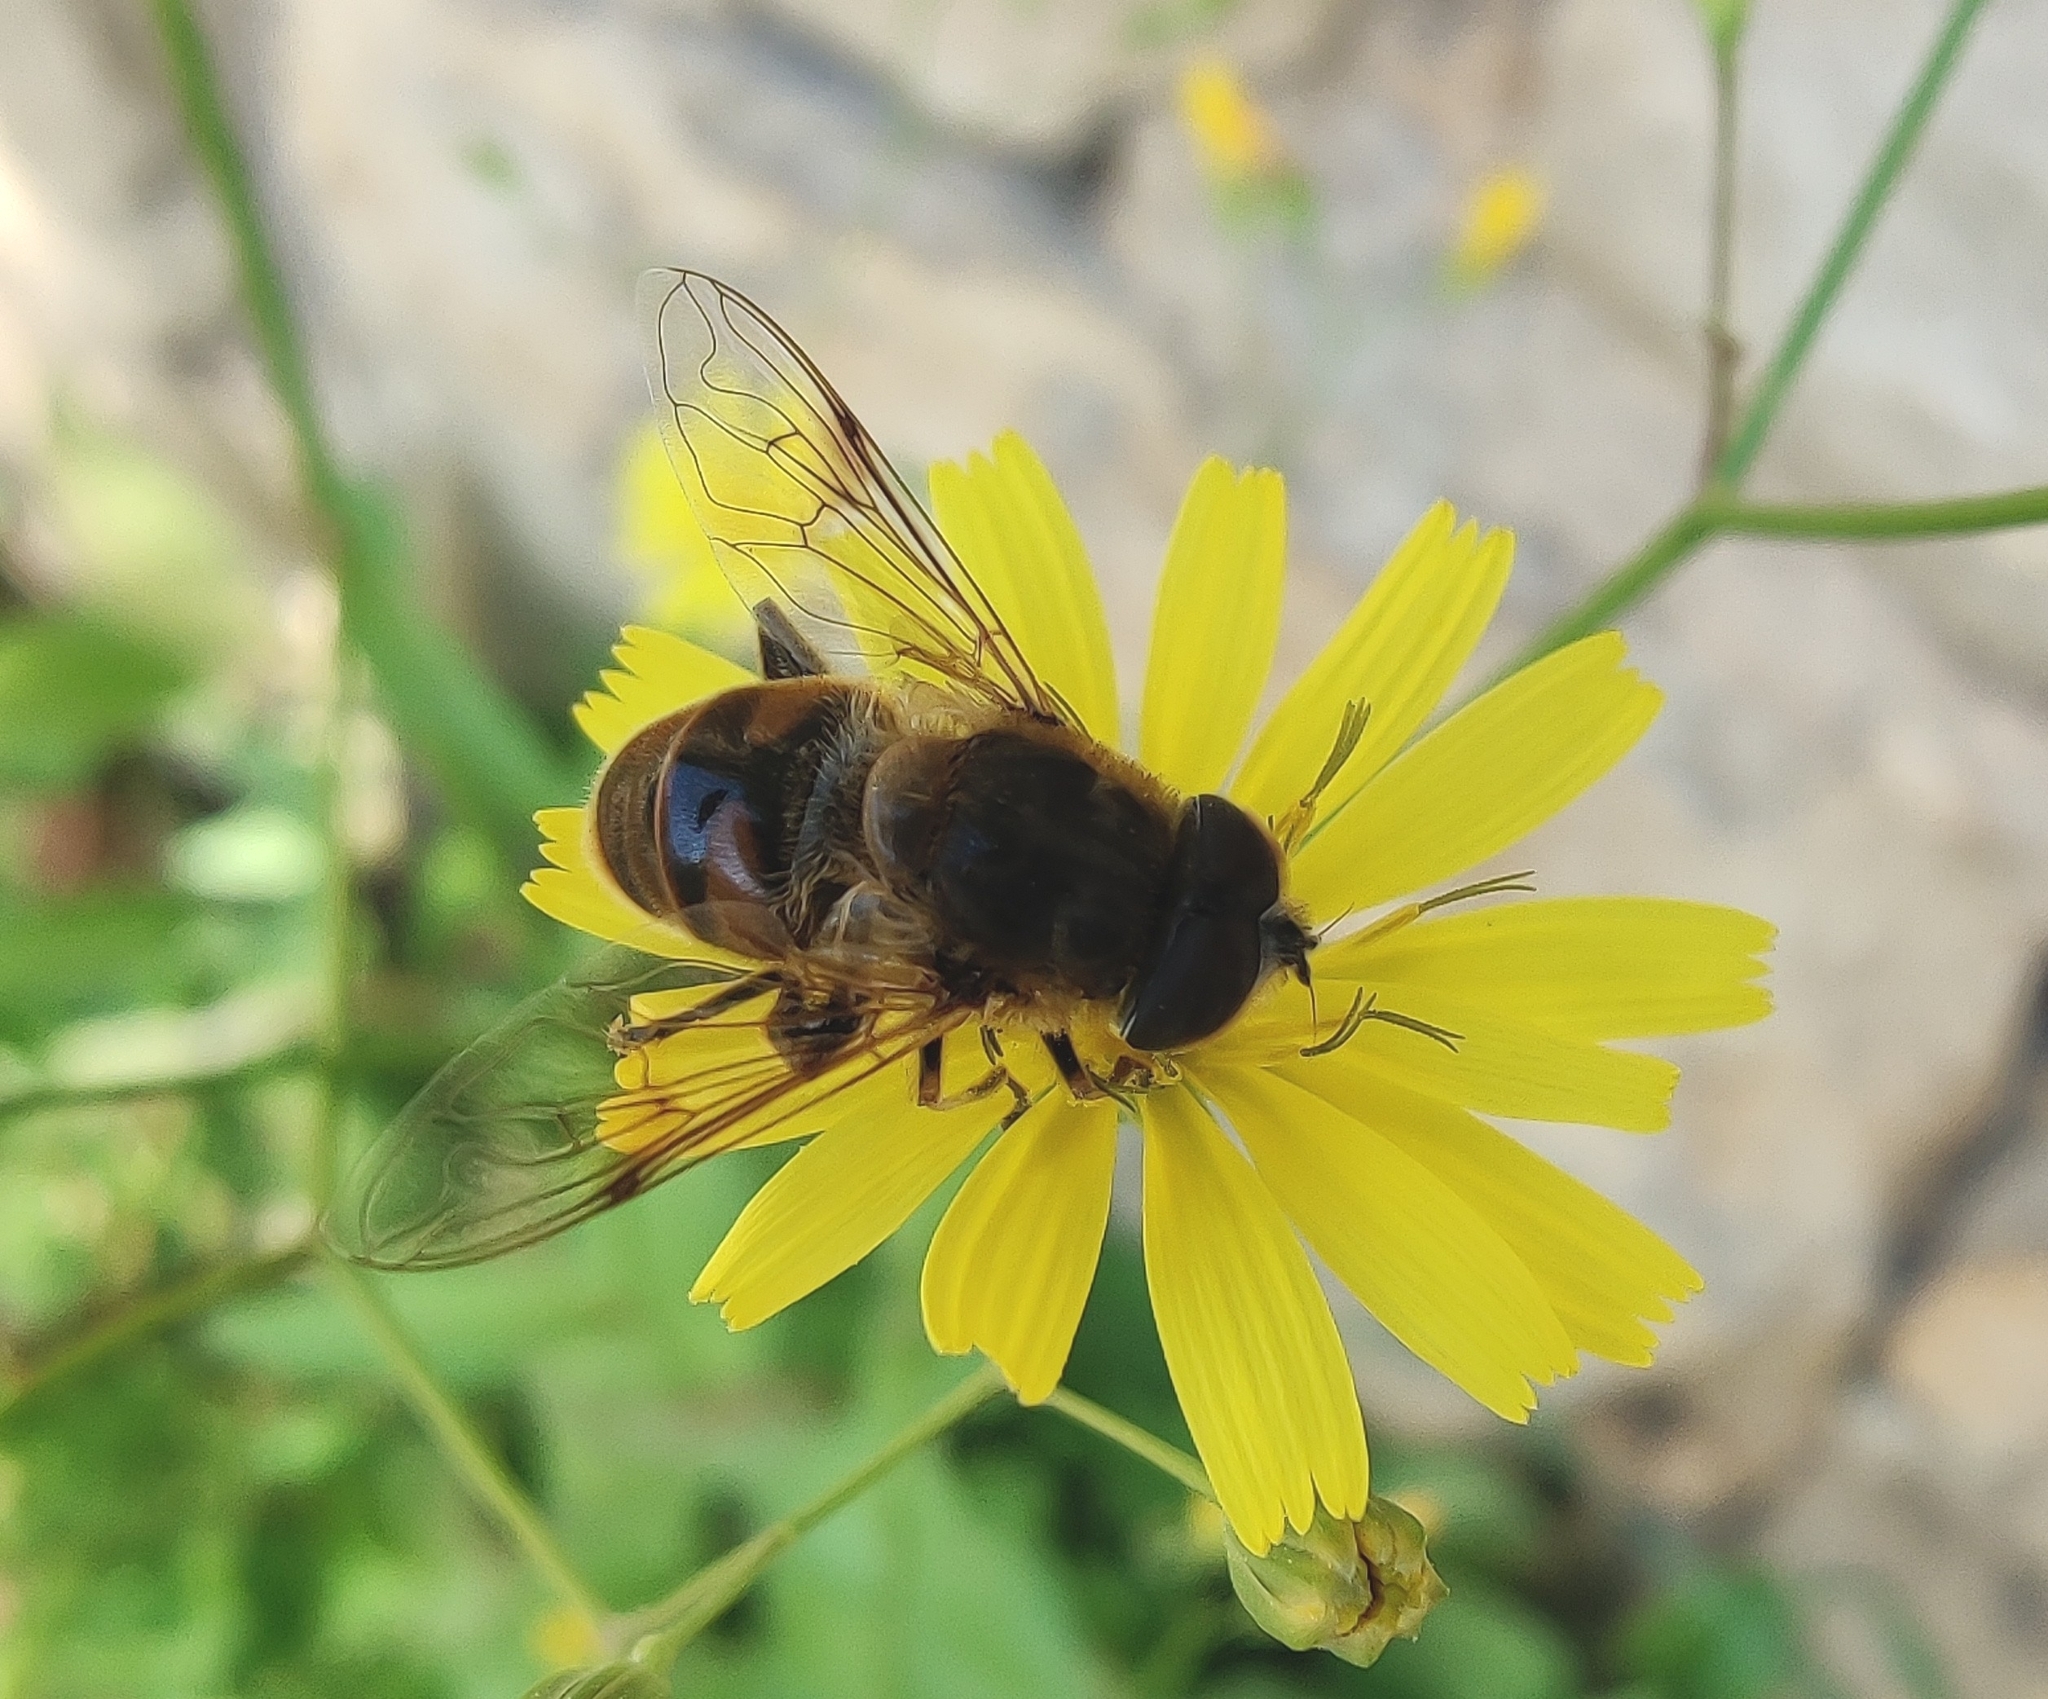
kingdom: Animalia
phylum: Arthropoda
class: Insecta
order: Diptera
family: Syrphidae
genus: Eristalis
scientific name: Eristalis tenax
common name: Drone fly
